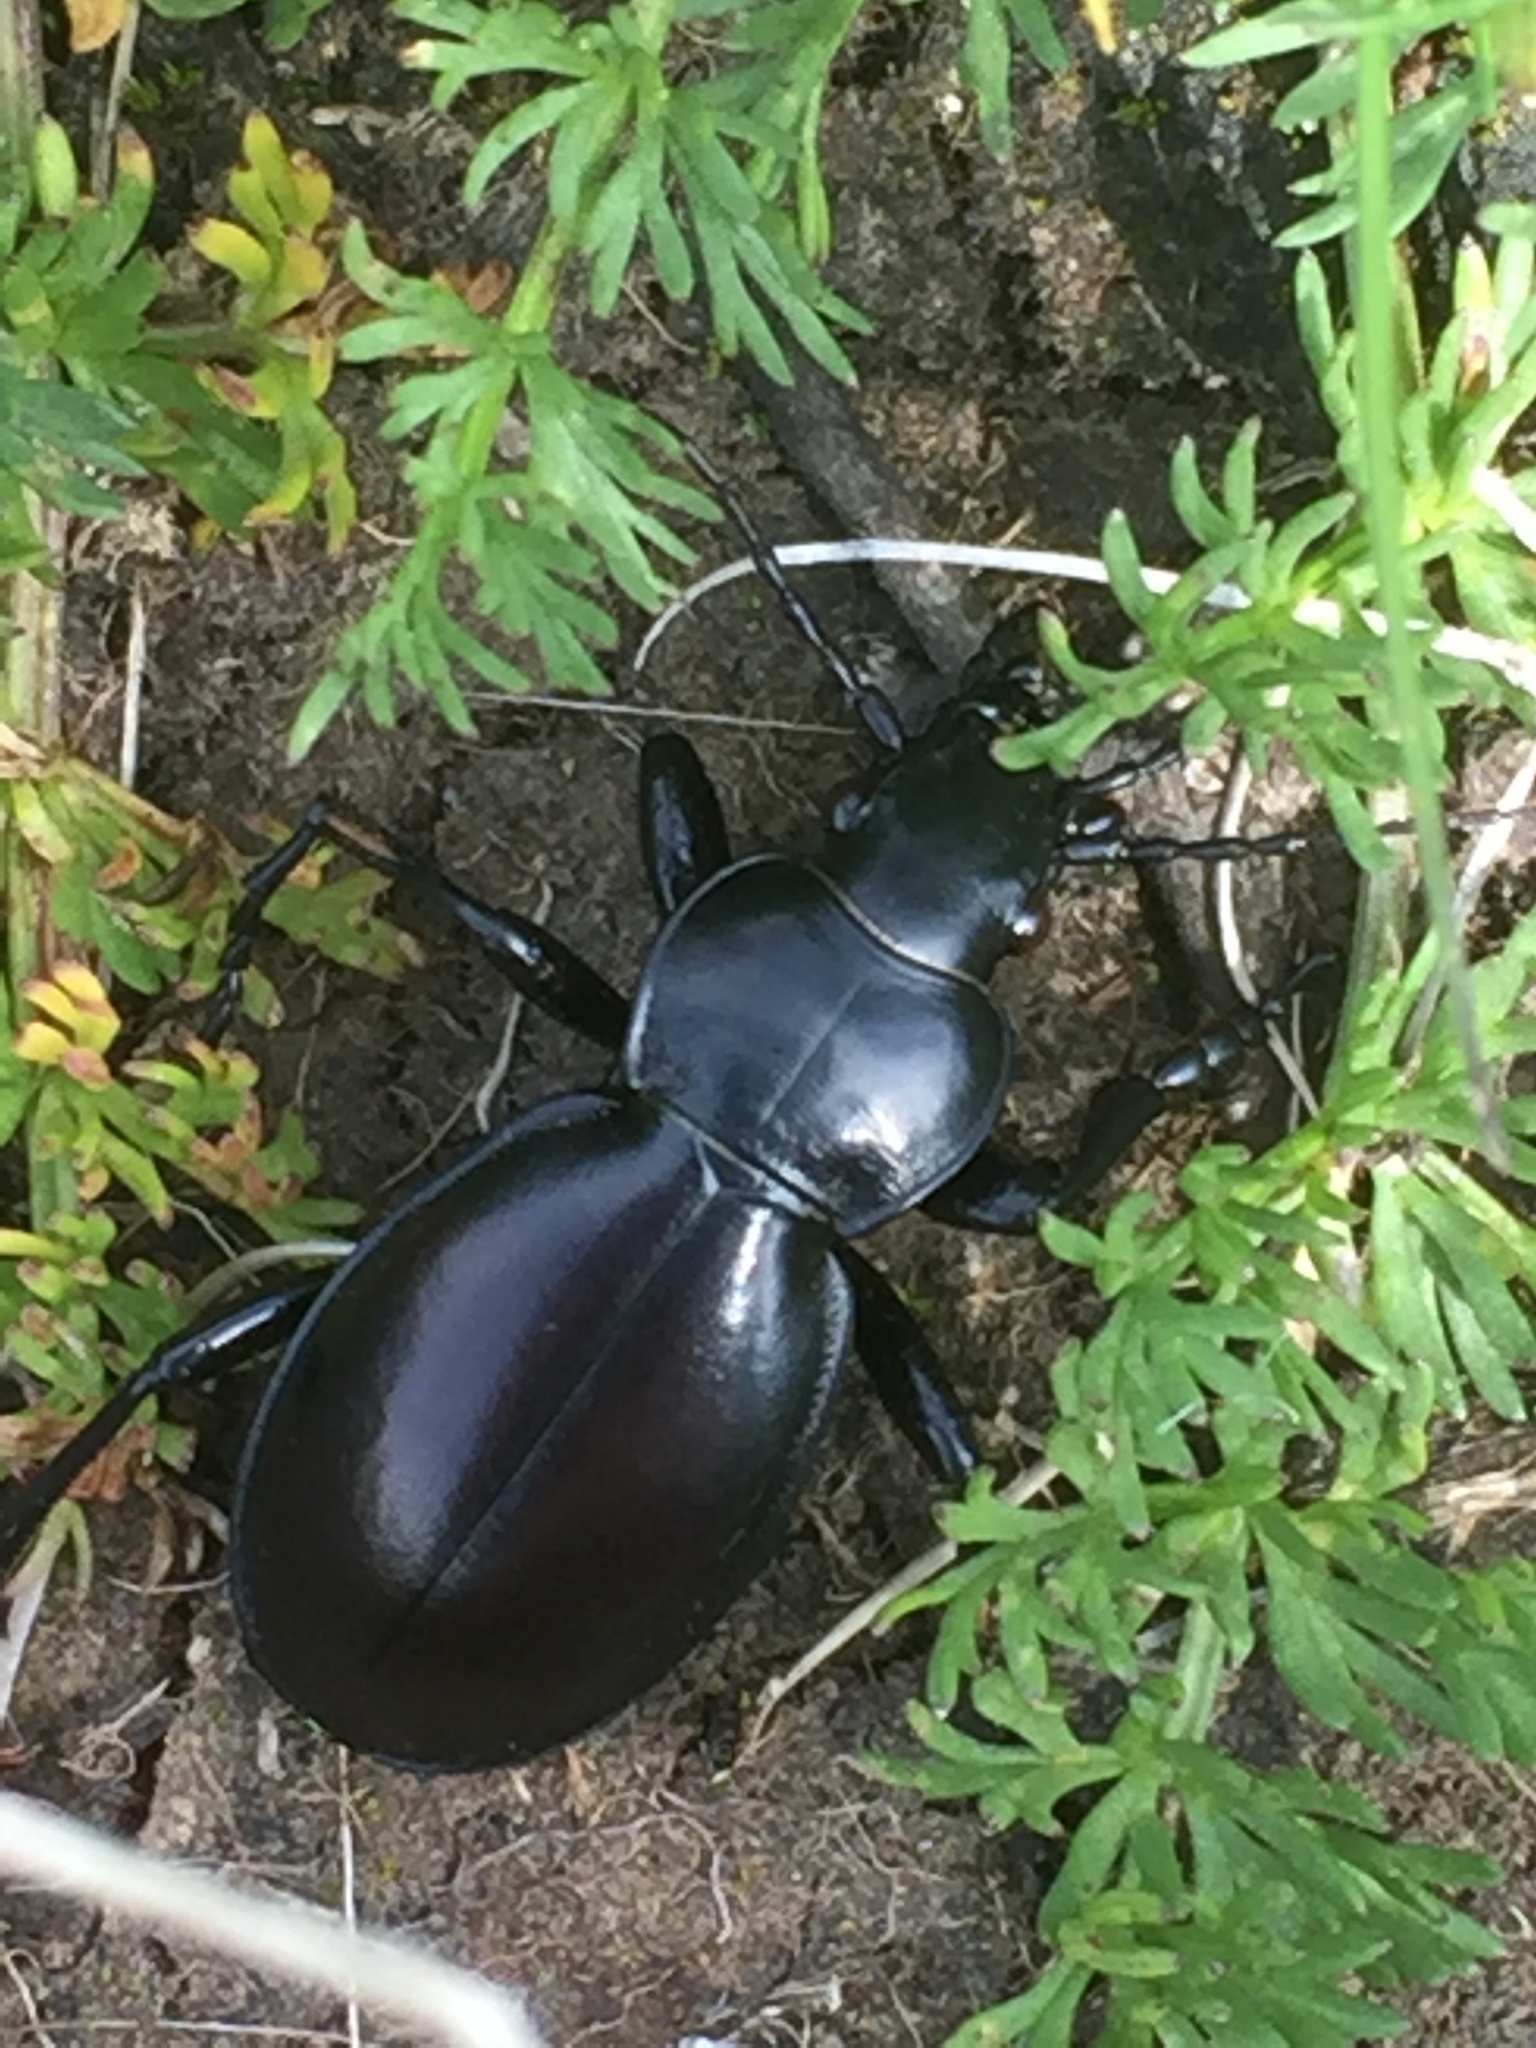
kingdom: Animalia
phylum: Arthropoda
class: Insecta
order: Coleoptera
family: Carabidae
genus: Carabus
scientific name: Carabus calleyi
